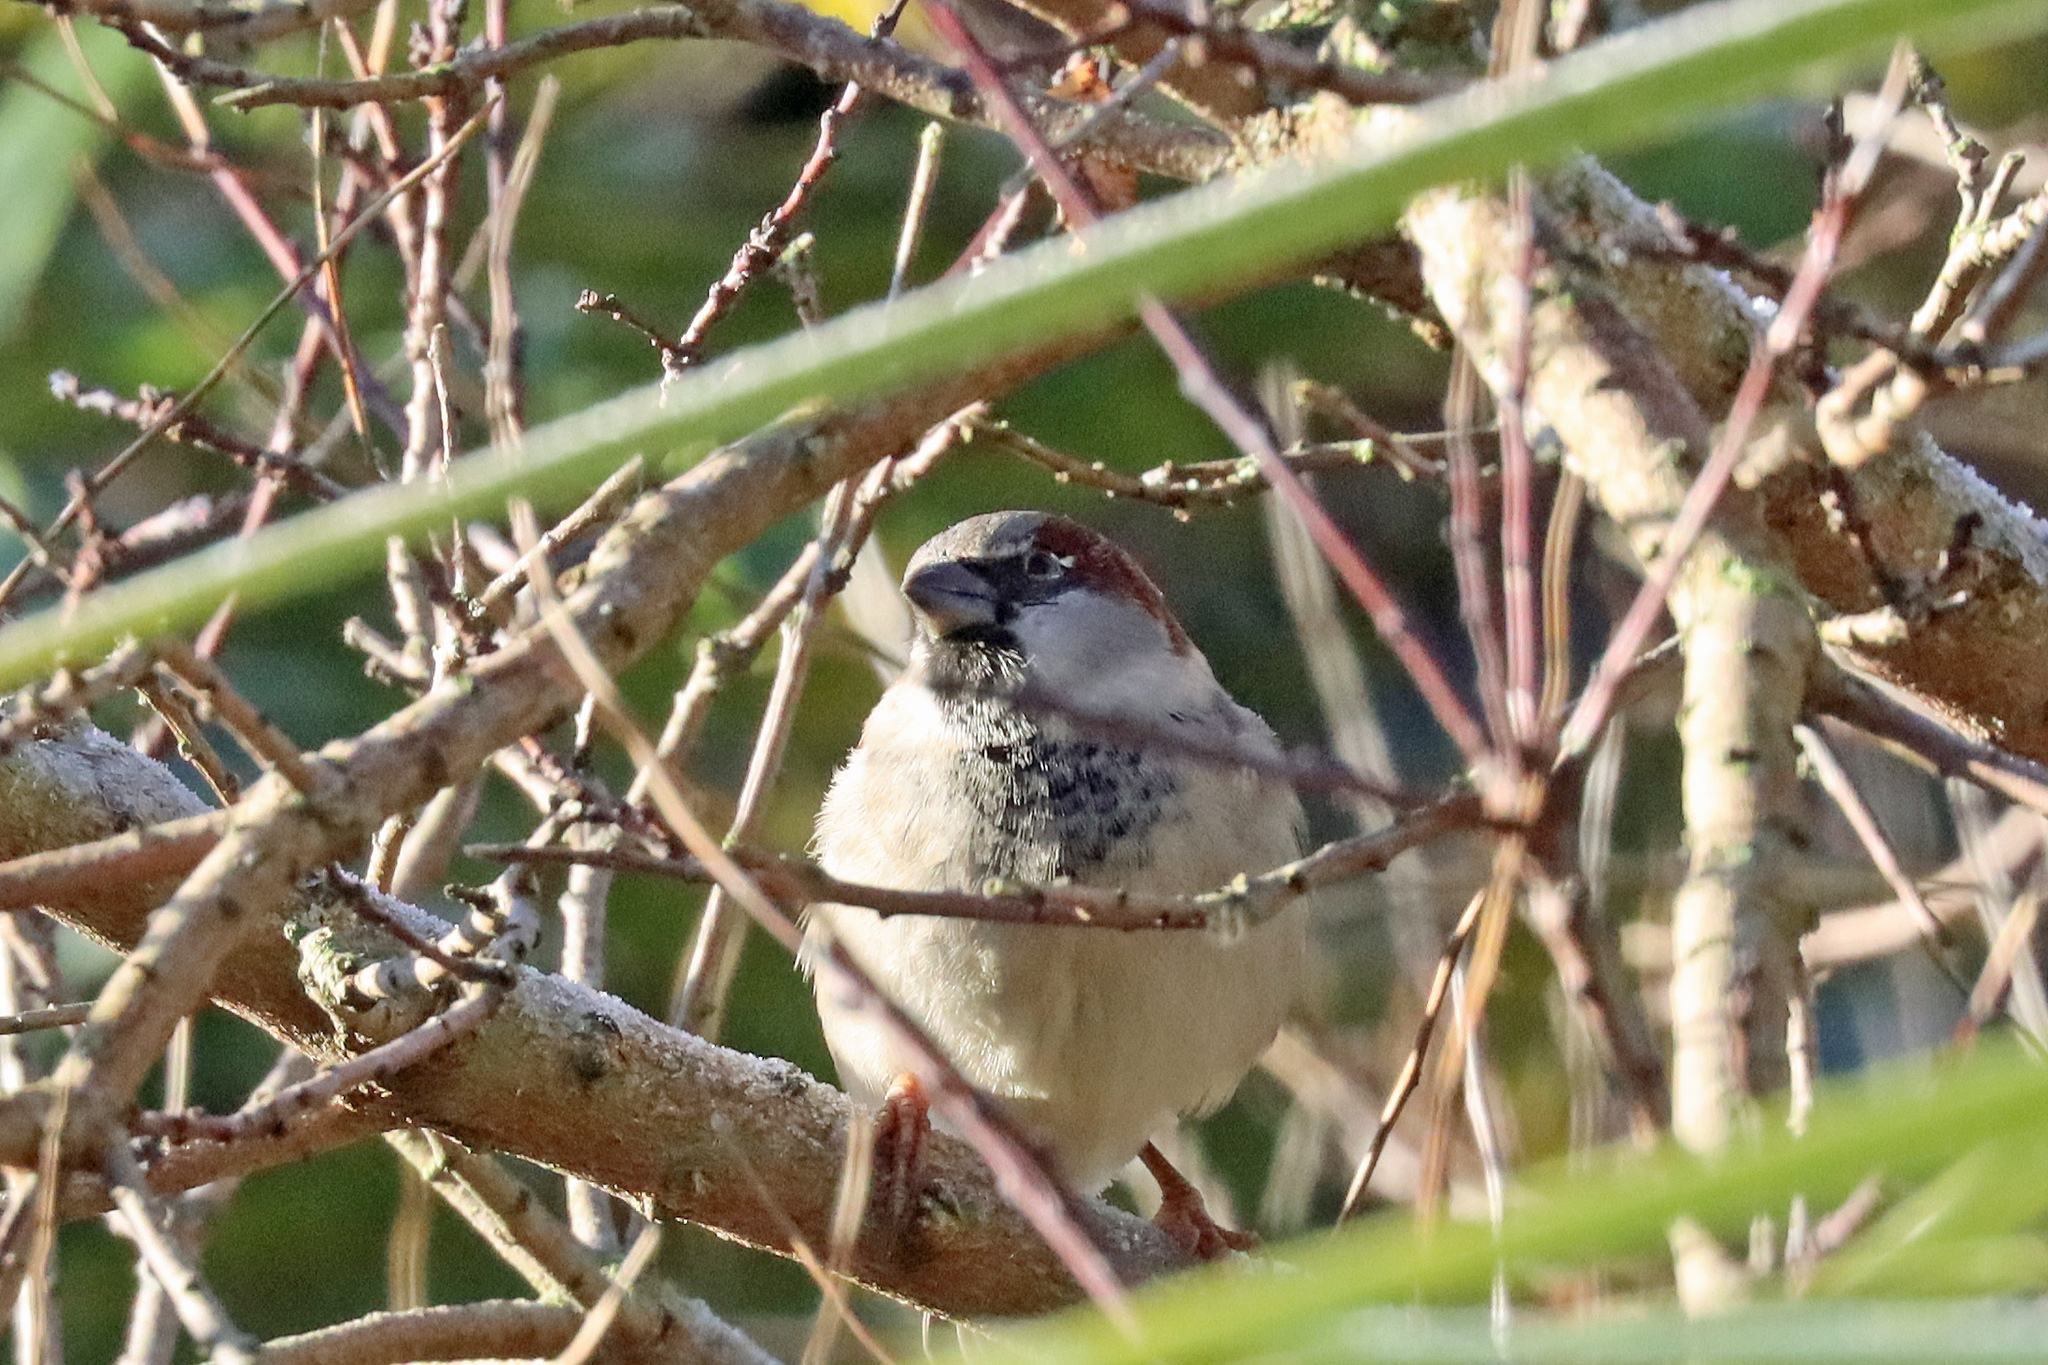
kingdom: Animalia
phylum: Chordata
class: Aves
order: Passeriformes
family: Passeridae
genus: Passer
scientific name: Passer domesticus
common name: House sparrow
